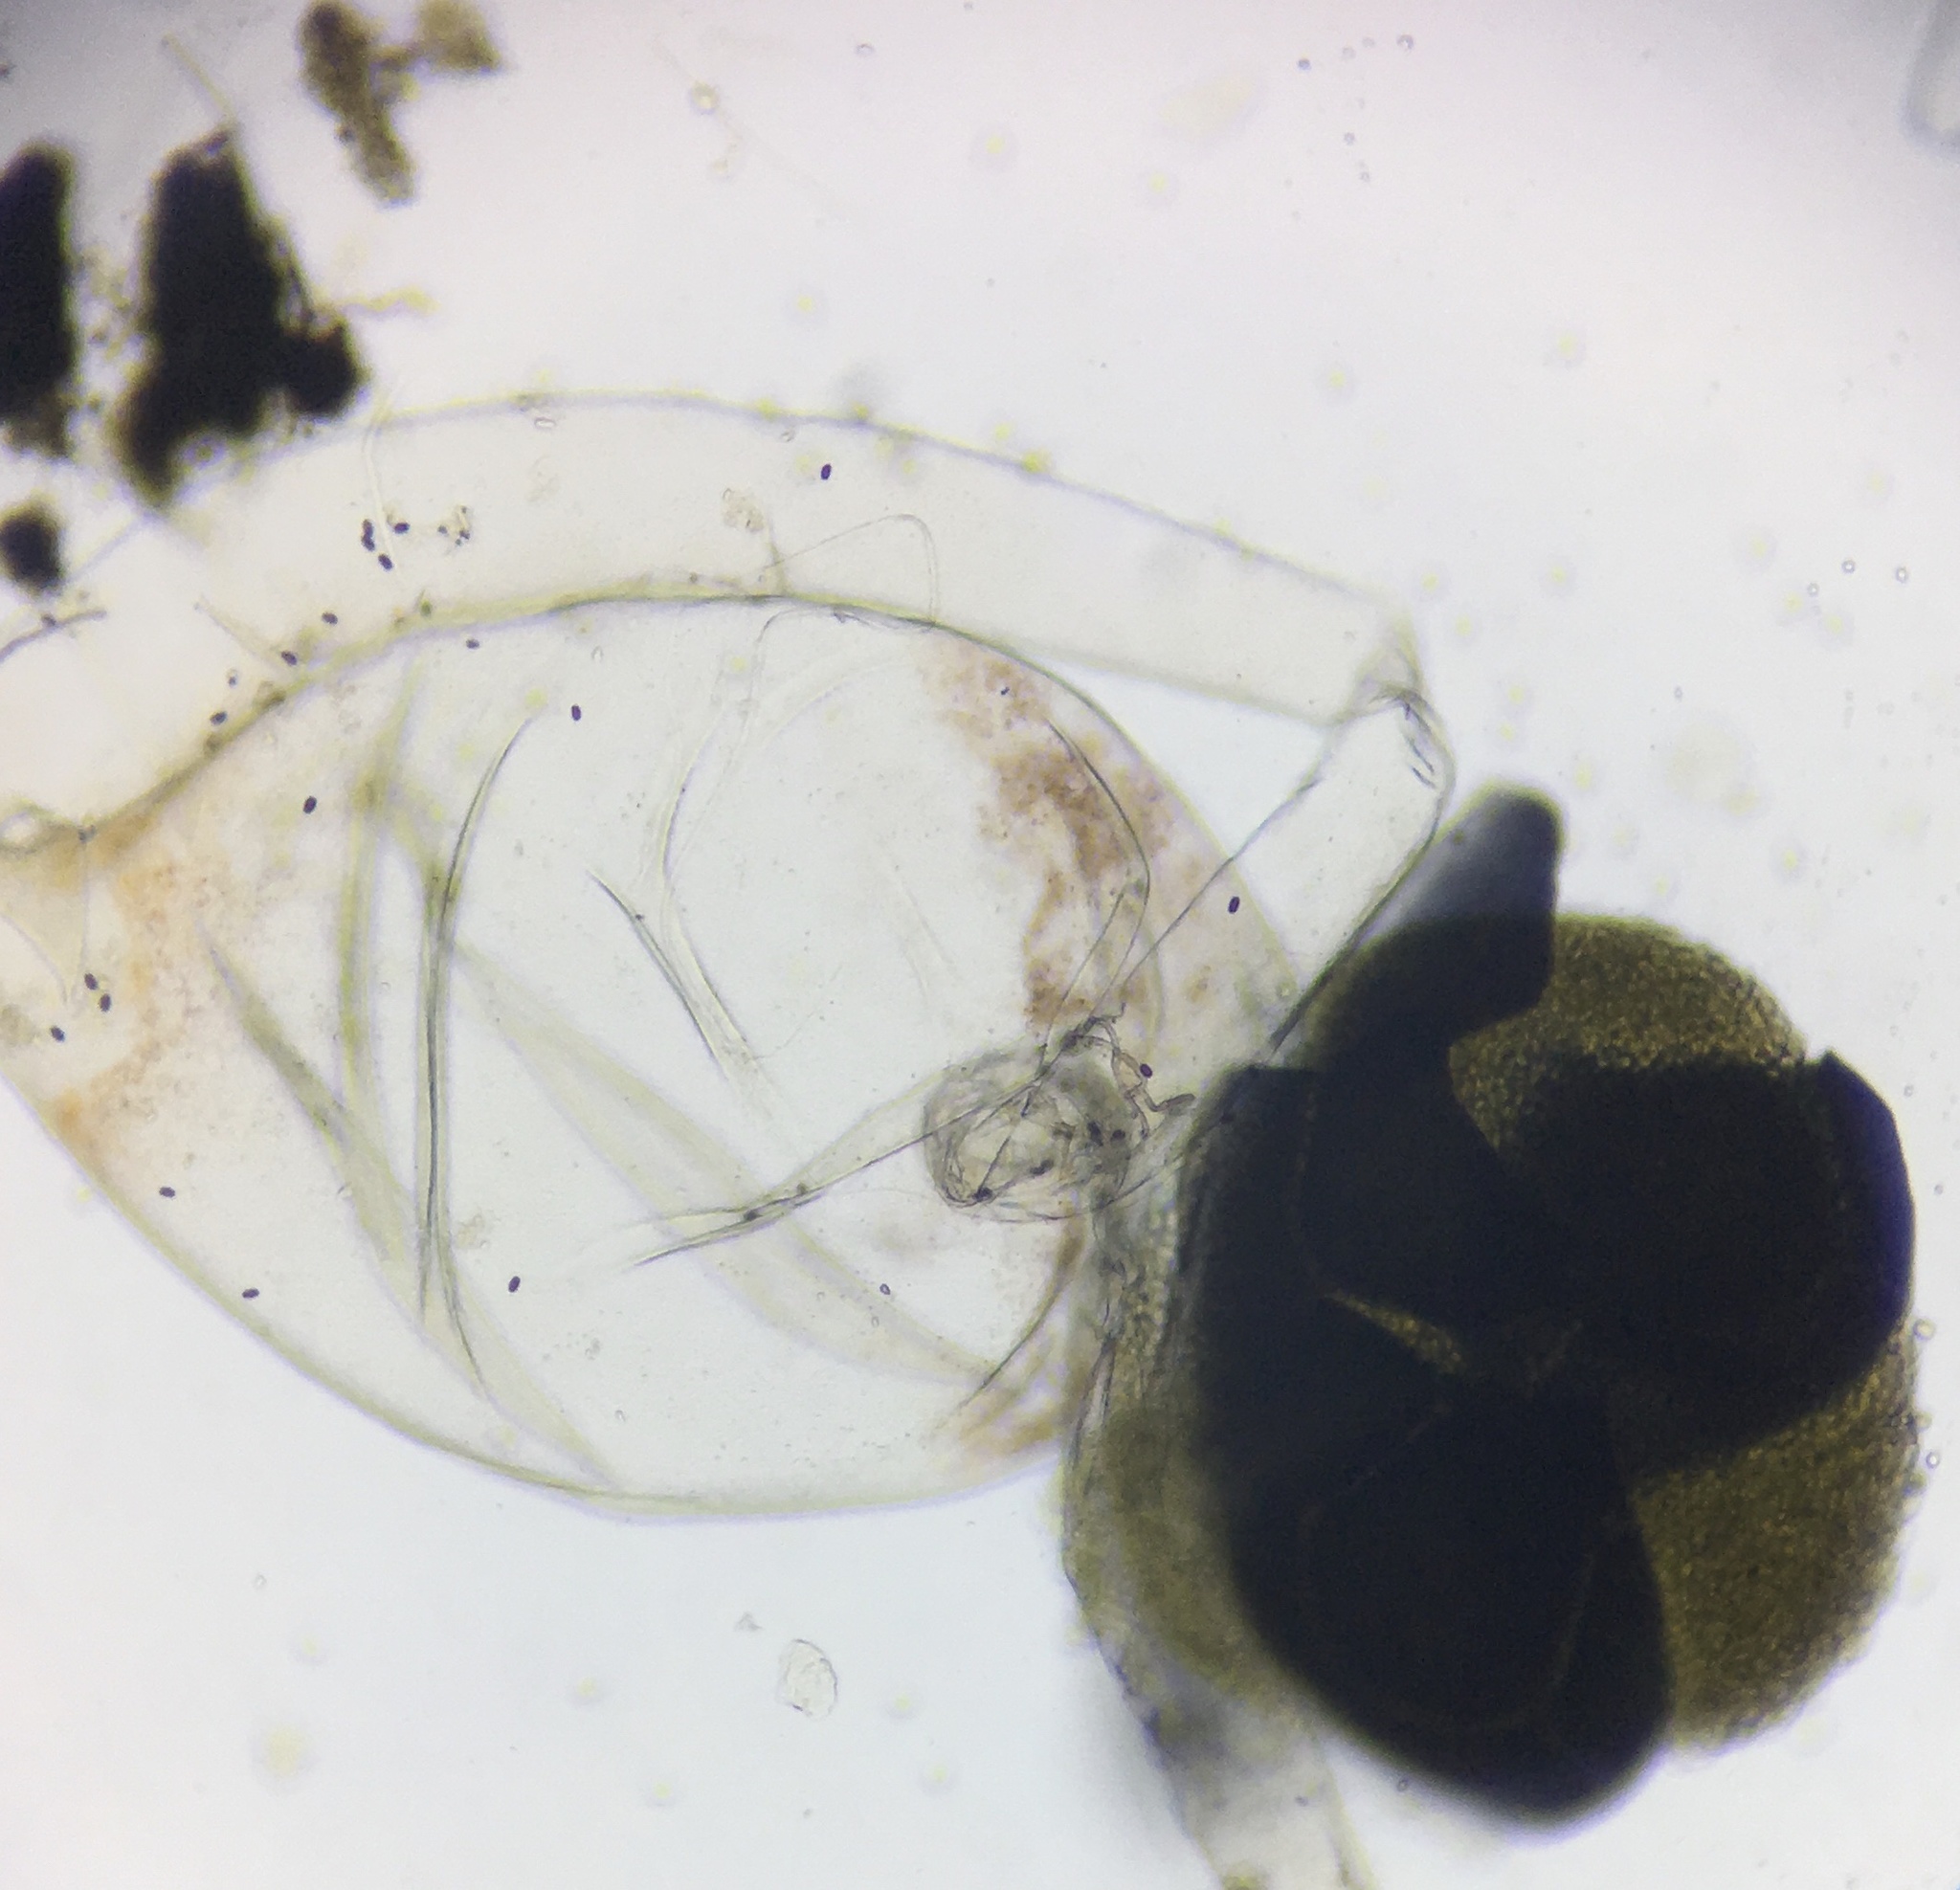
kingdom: Fungi
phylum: Mucoromycota
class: Mucoromycetes
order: Mucorales
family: Pilobolaceae
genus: Pilobolus
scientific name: Pilobolus crystallinus
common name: Dung cannon
